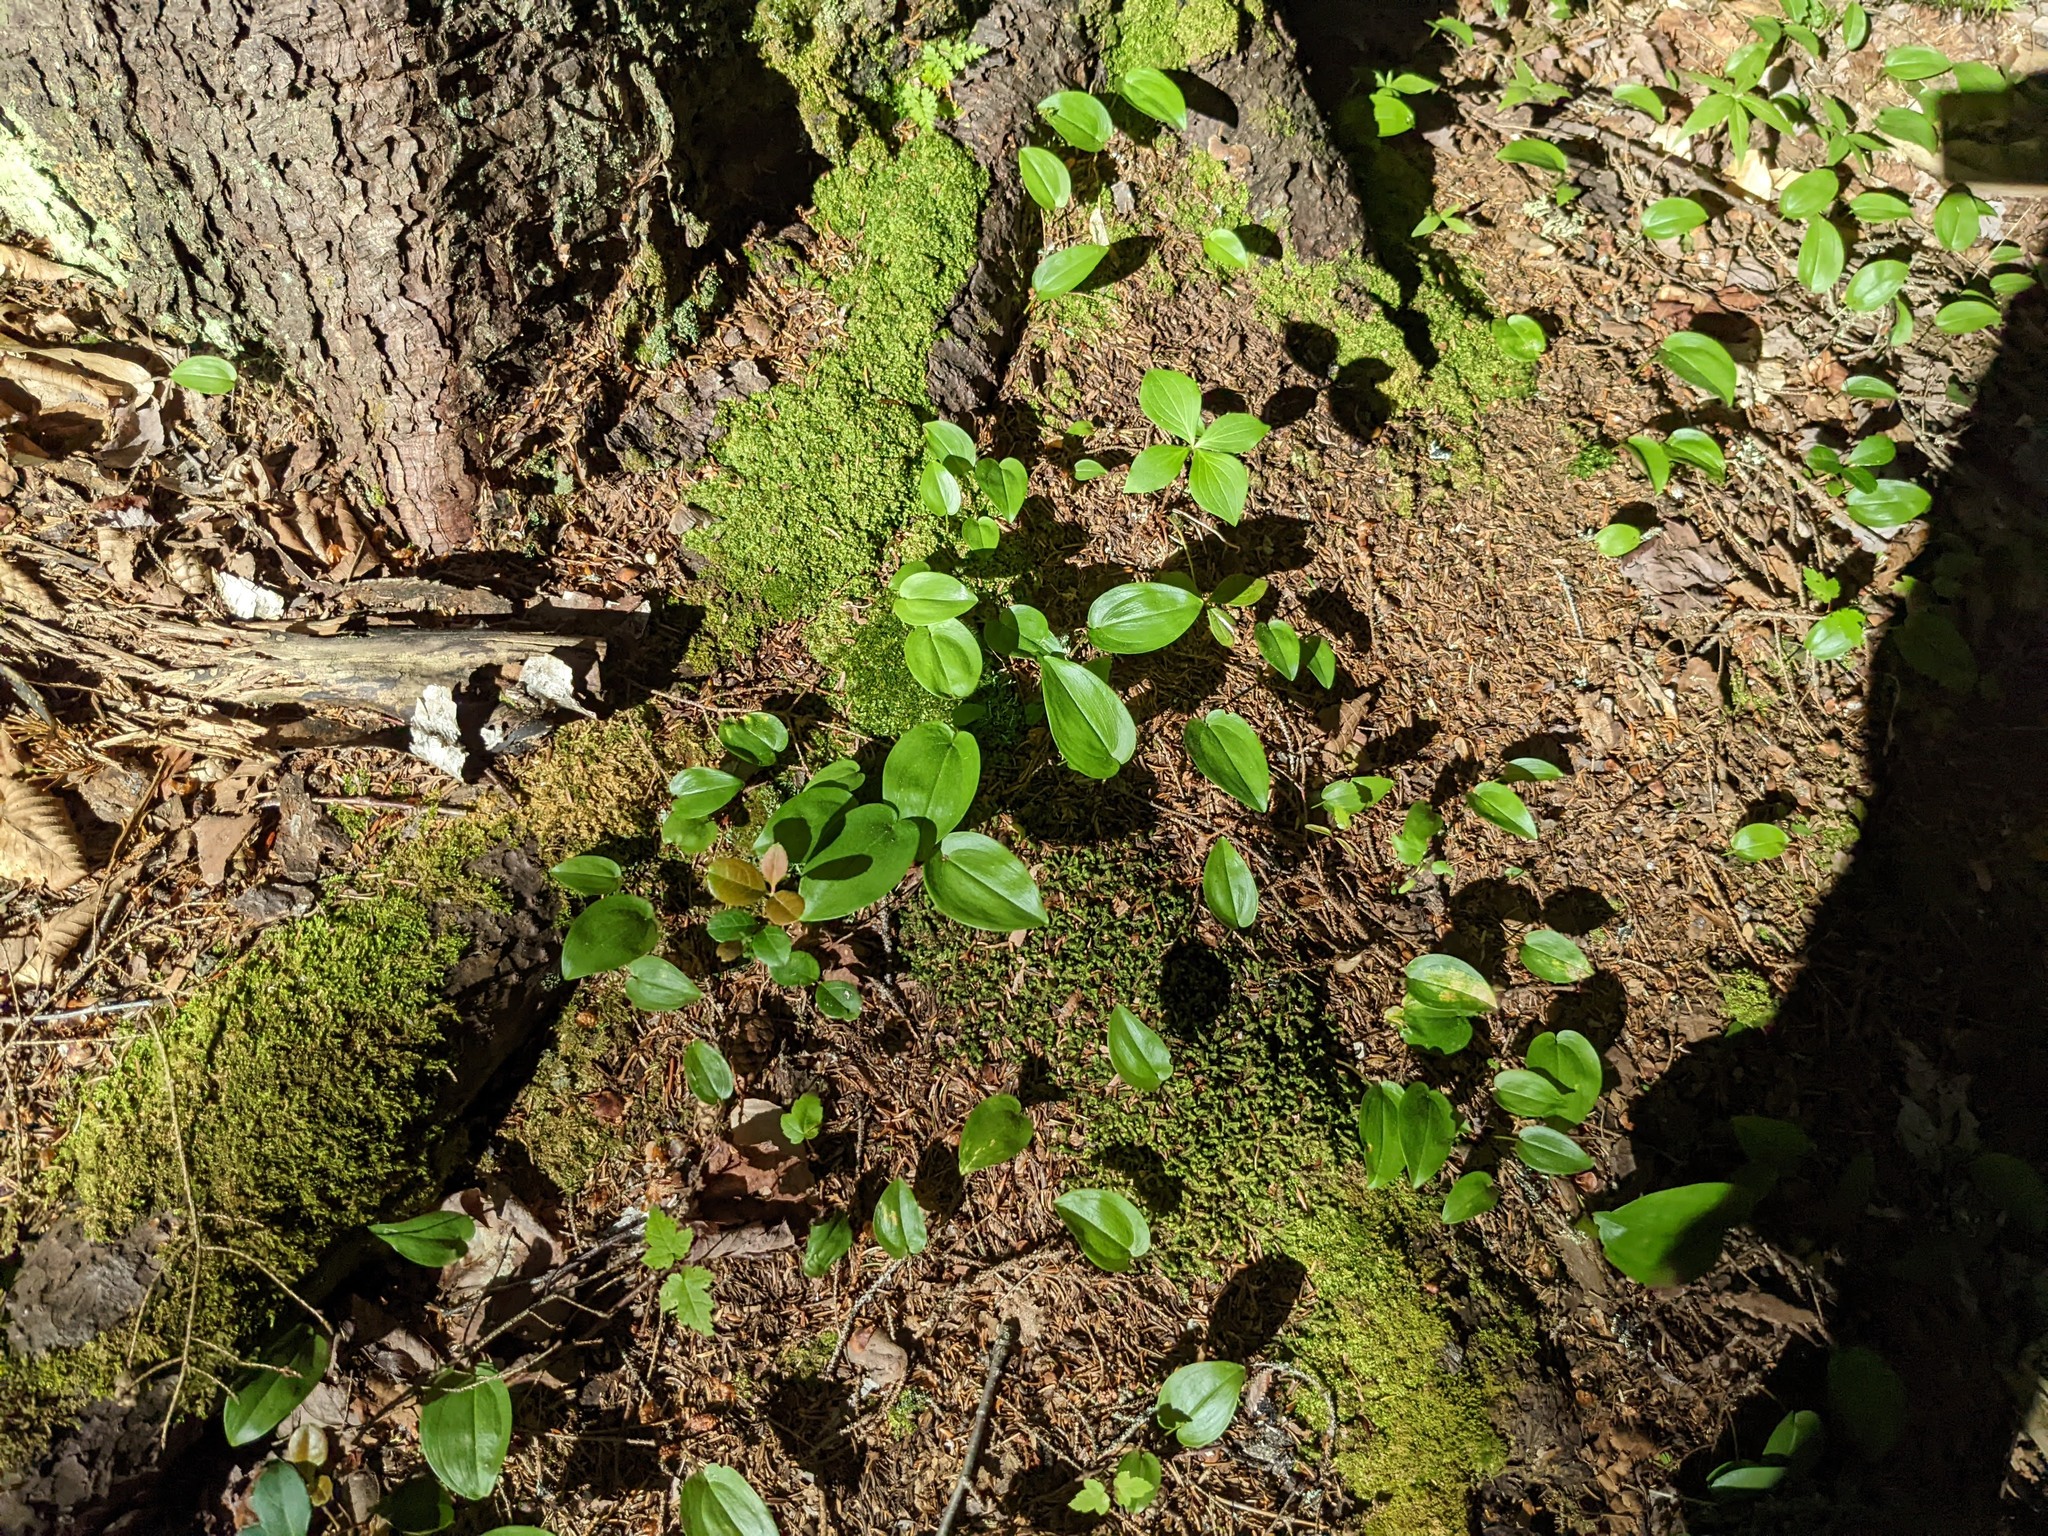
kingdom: Plantae
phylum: Tracheophyta
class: Liliopsida
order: Asparagales
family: Asparagaceae
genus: Maianthemum
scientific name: Maianthemum canadense
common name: False lily-of-the-valley
